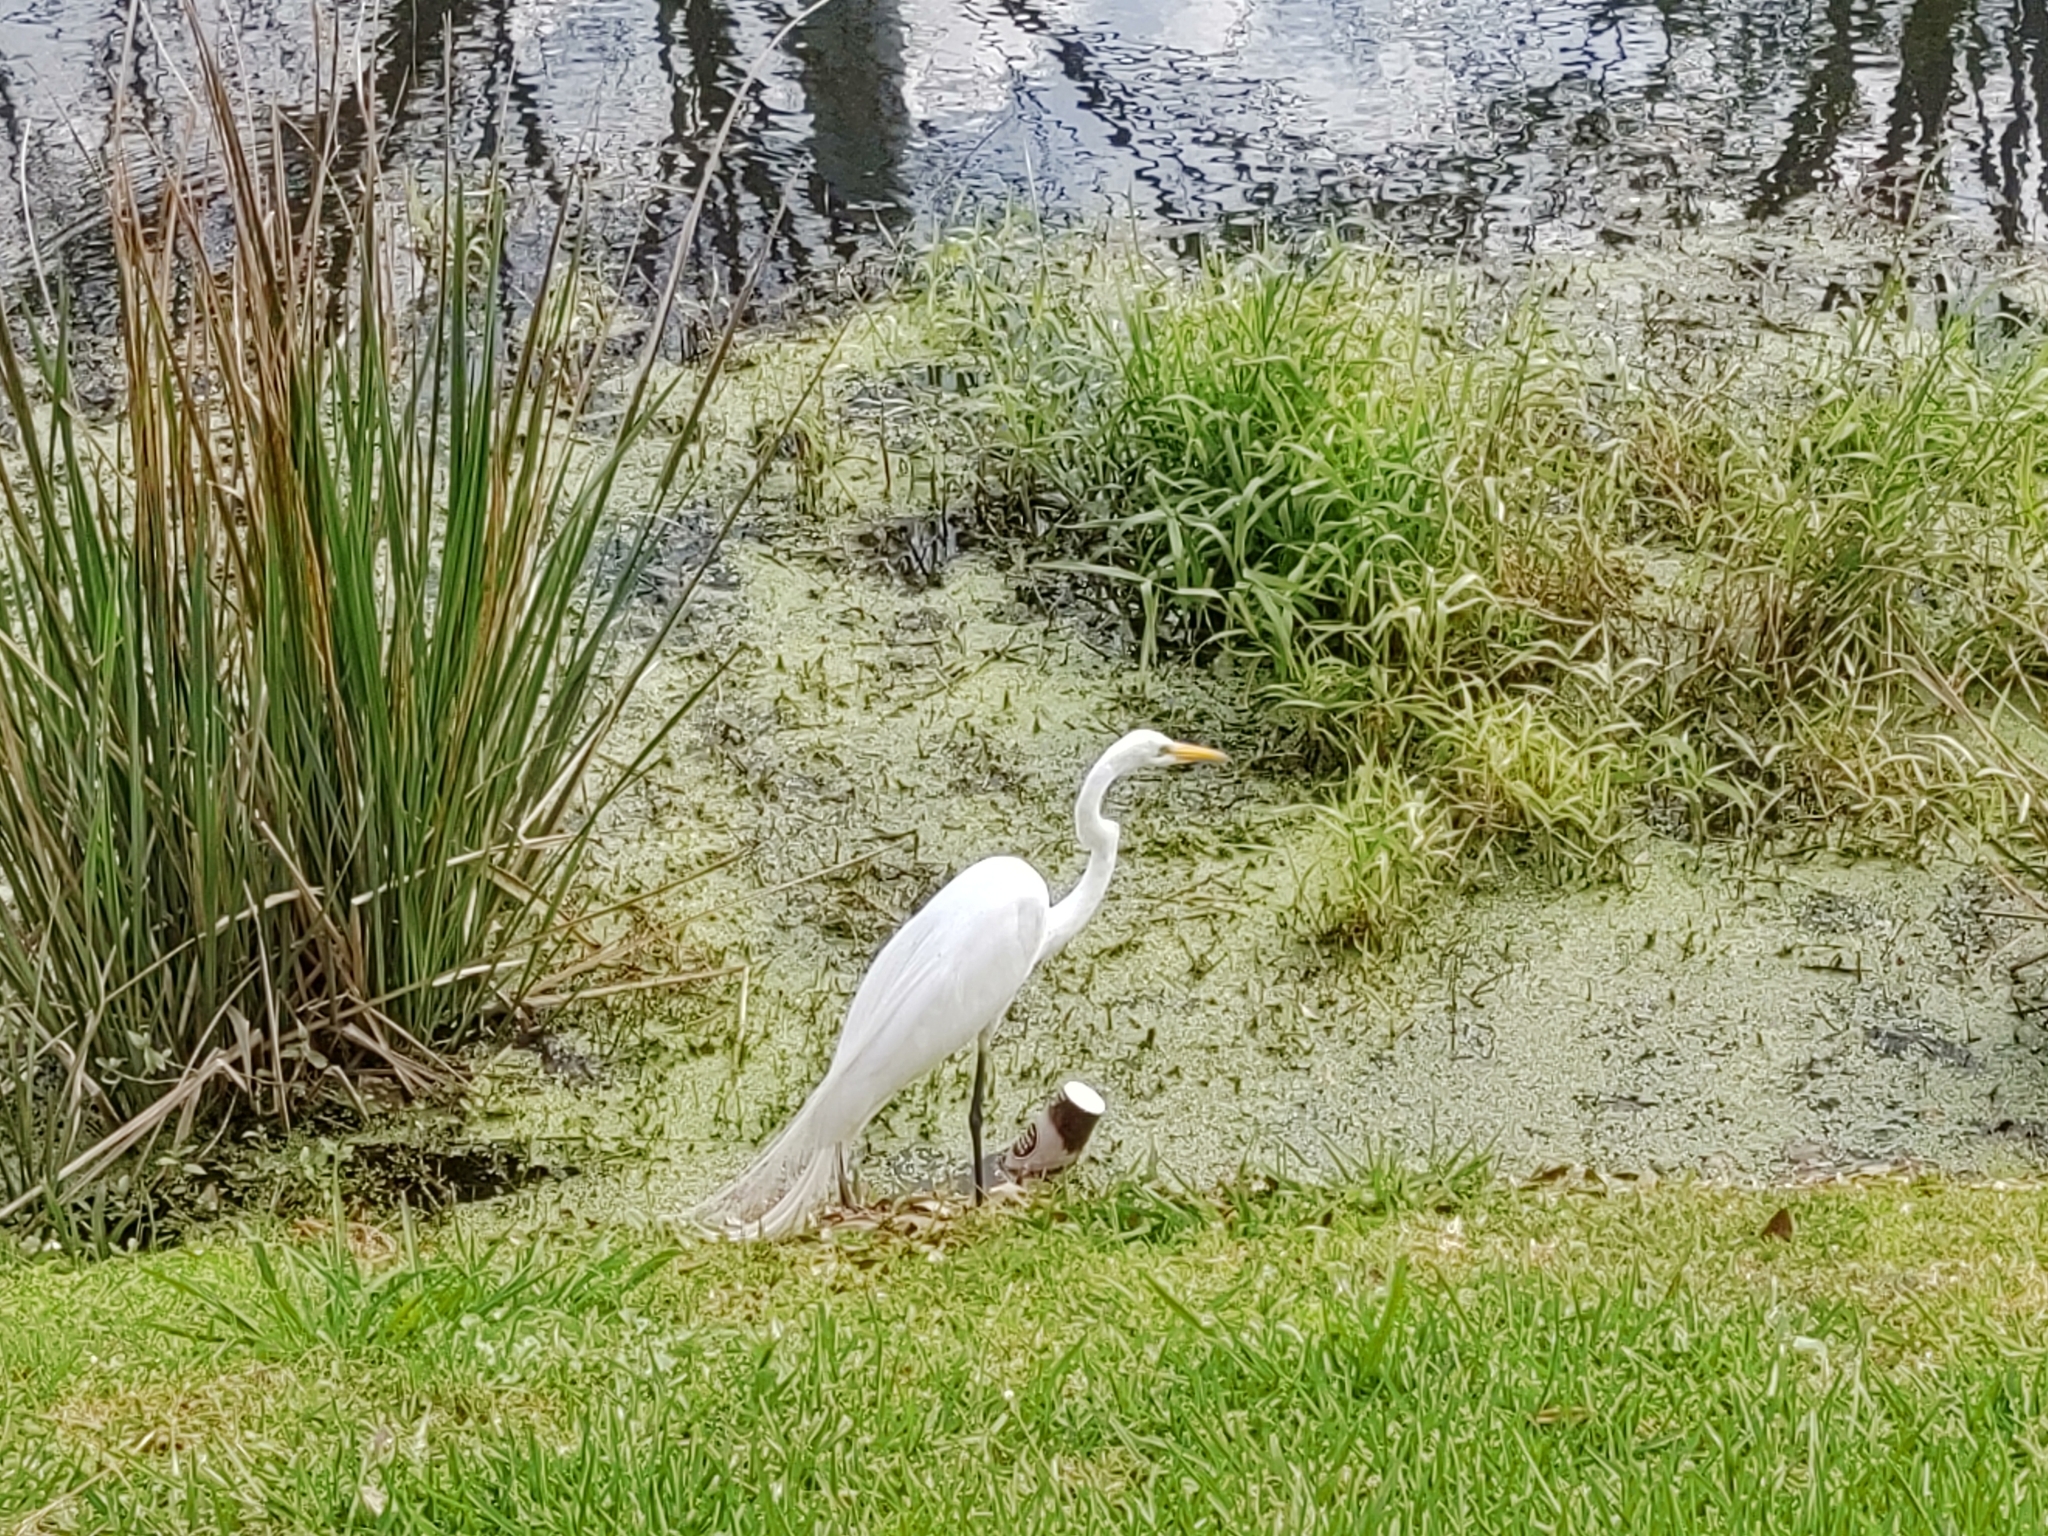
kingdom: Animalia
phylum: Chordata
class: Aves
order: Pelecaniformes
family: Ardeidae
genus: Ardea
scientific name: Ardea alba
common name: Great egret
